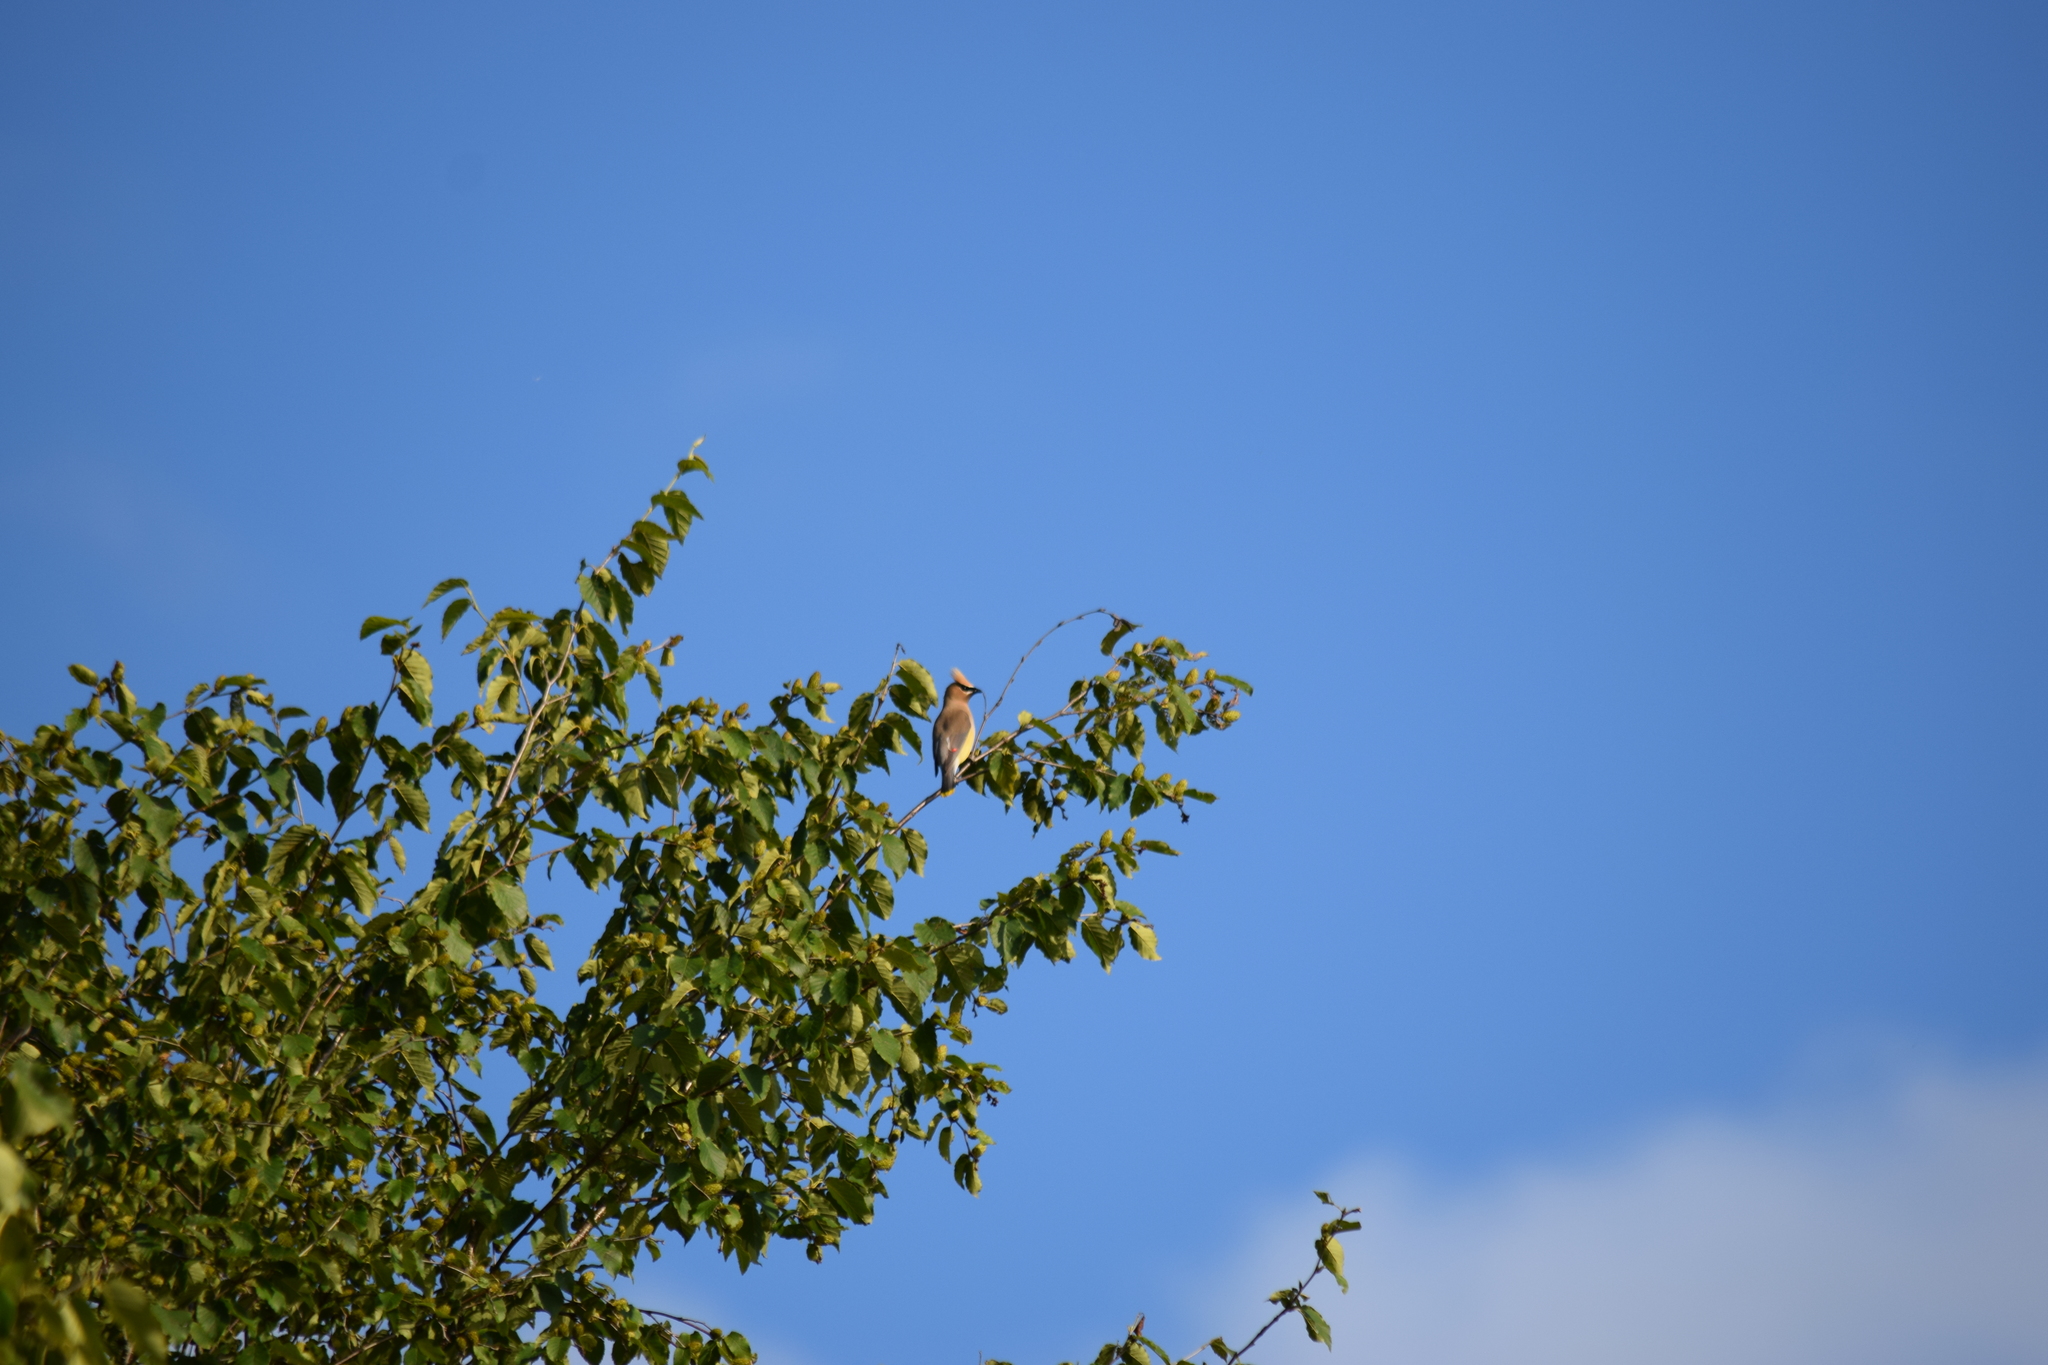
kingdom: Animalia
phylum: Chordata
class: Aves
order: Passeriformes
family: Bombycillidae
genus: Bombycilla
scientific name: Bombycilla cedrorum
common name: Cedar waxwing
